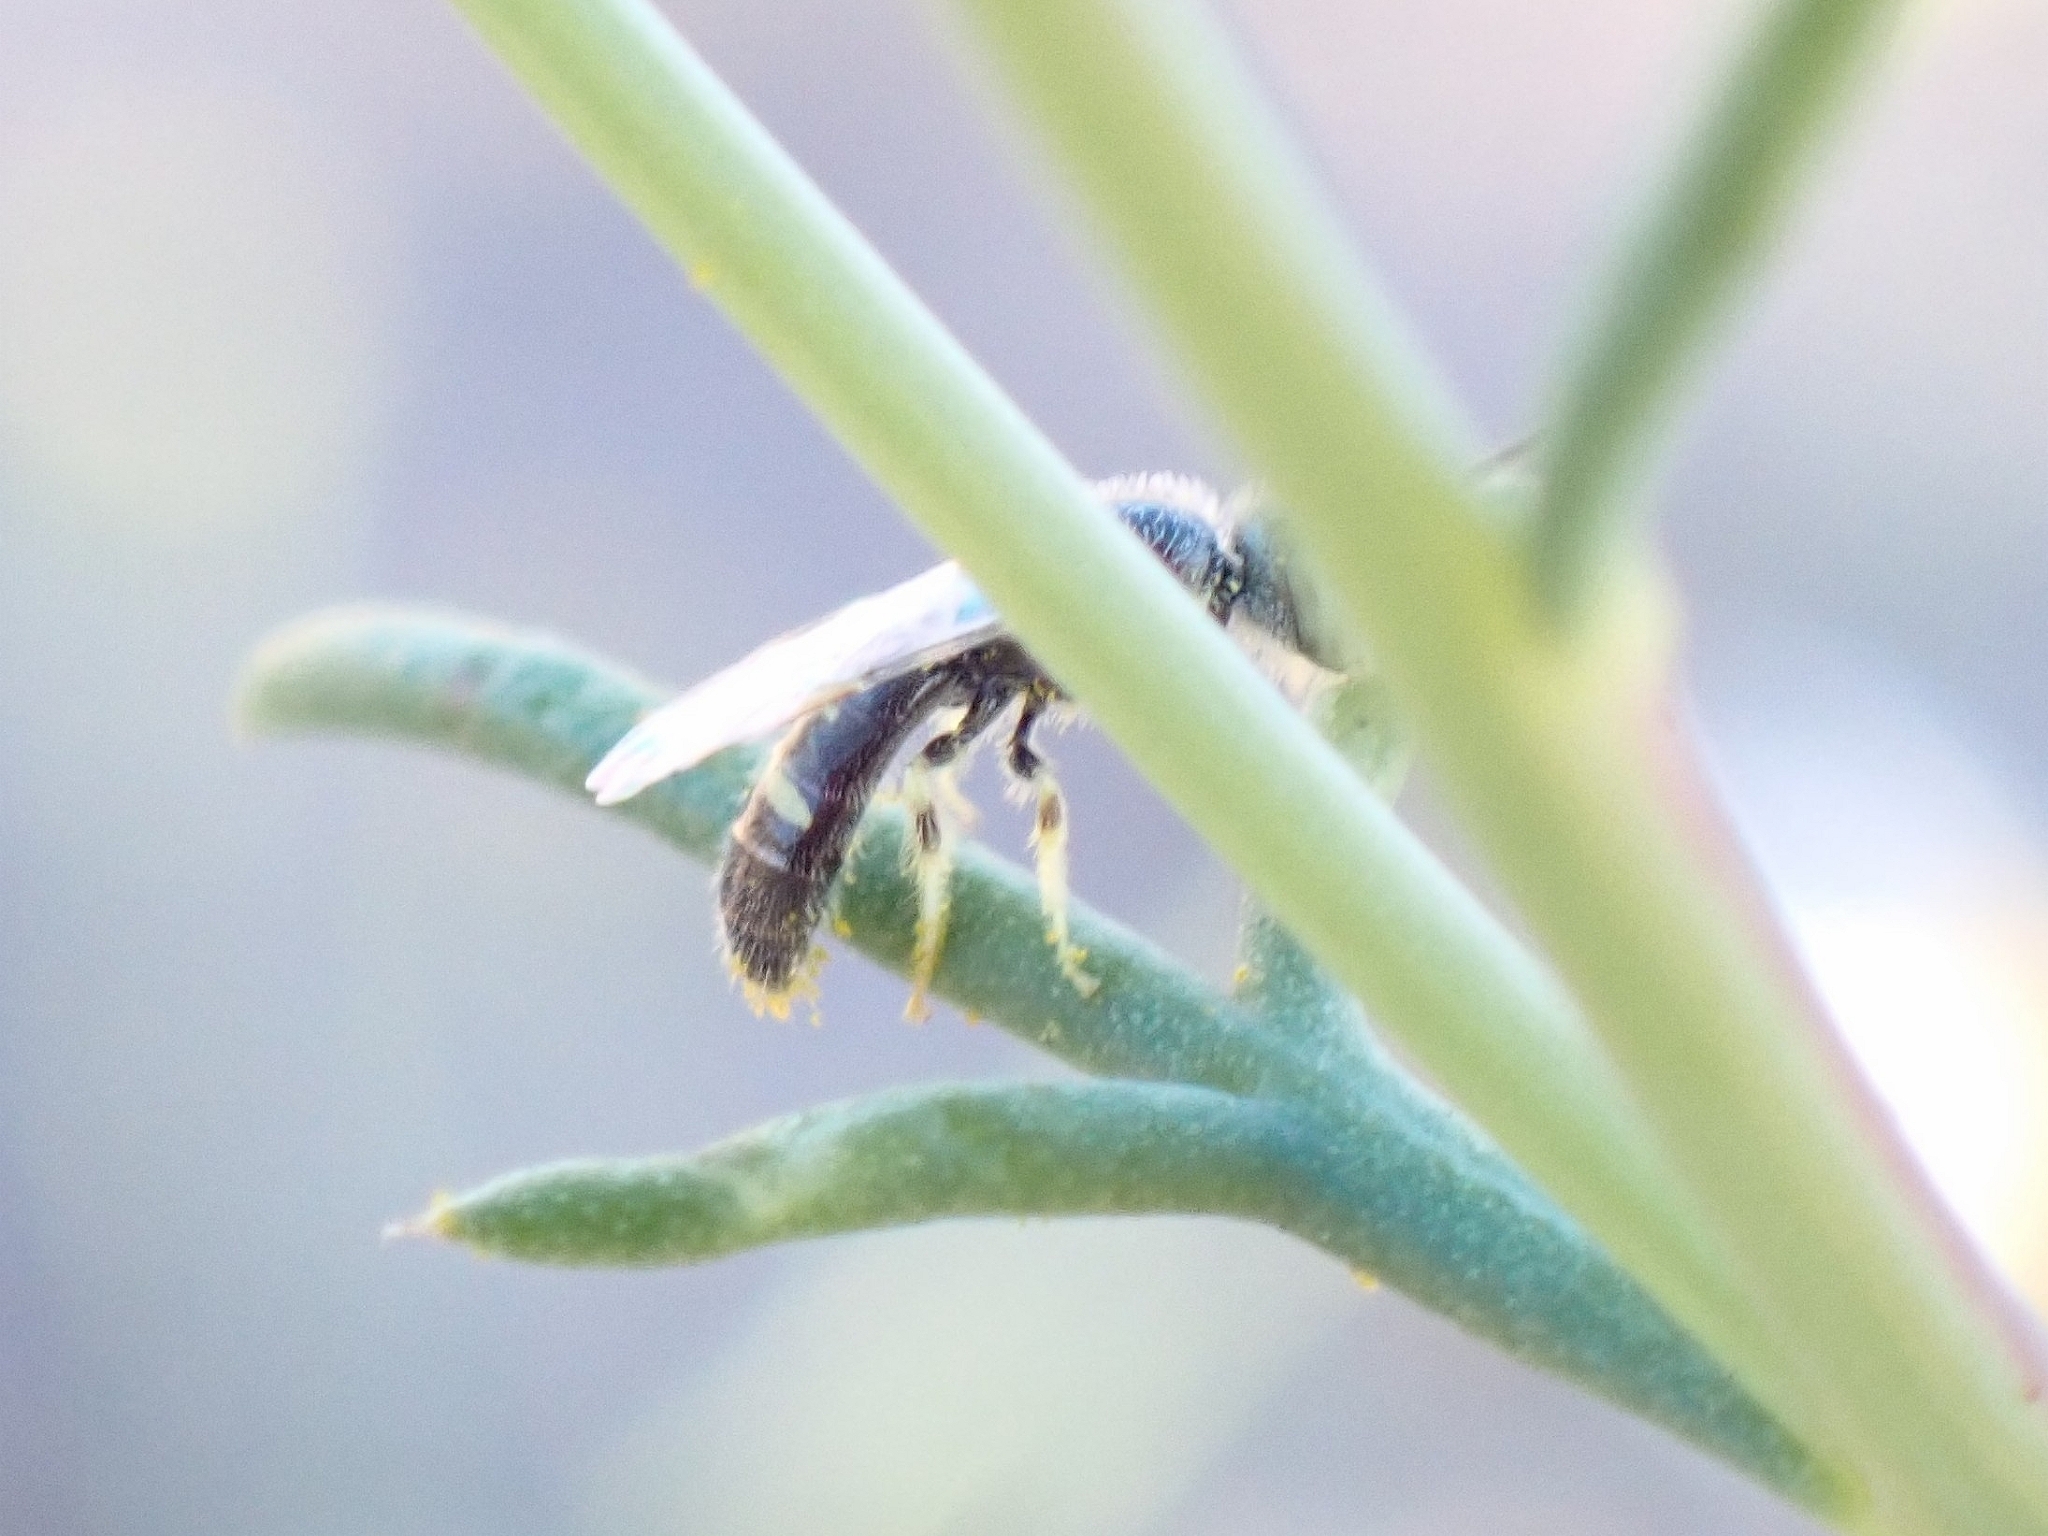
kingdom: Animalia
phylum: Arthropoda
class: Insecta
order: Hymenoptera
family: Halictidae
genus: Ceylalictus
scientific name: Ceylalictus variegatus
